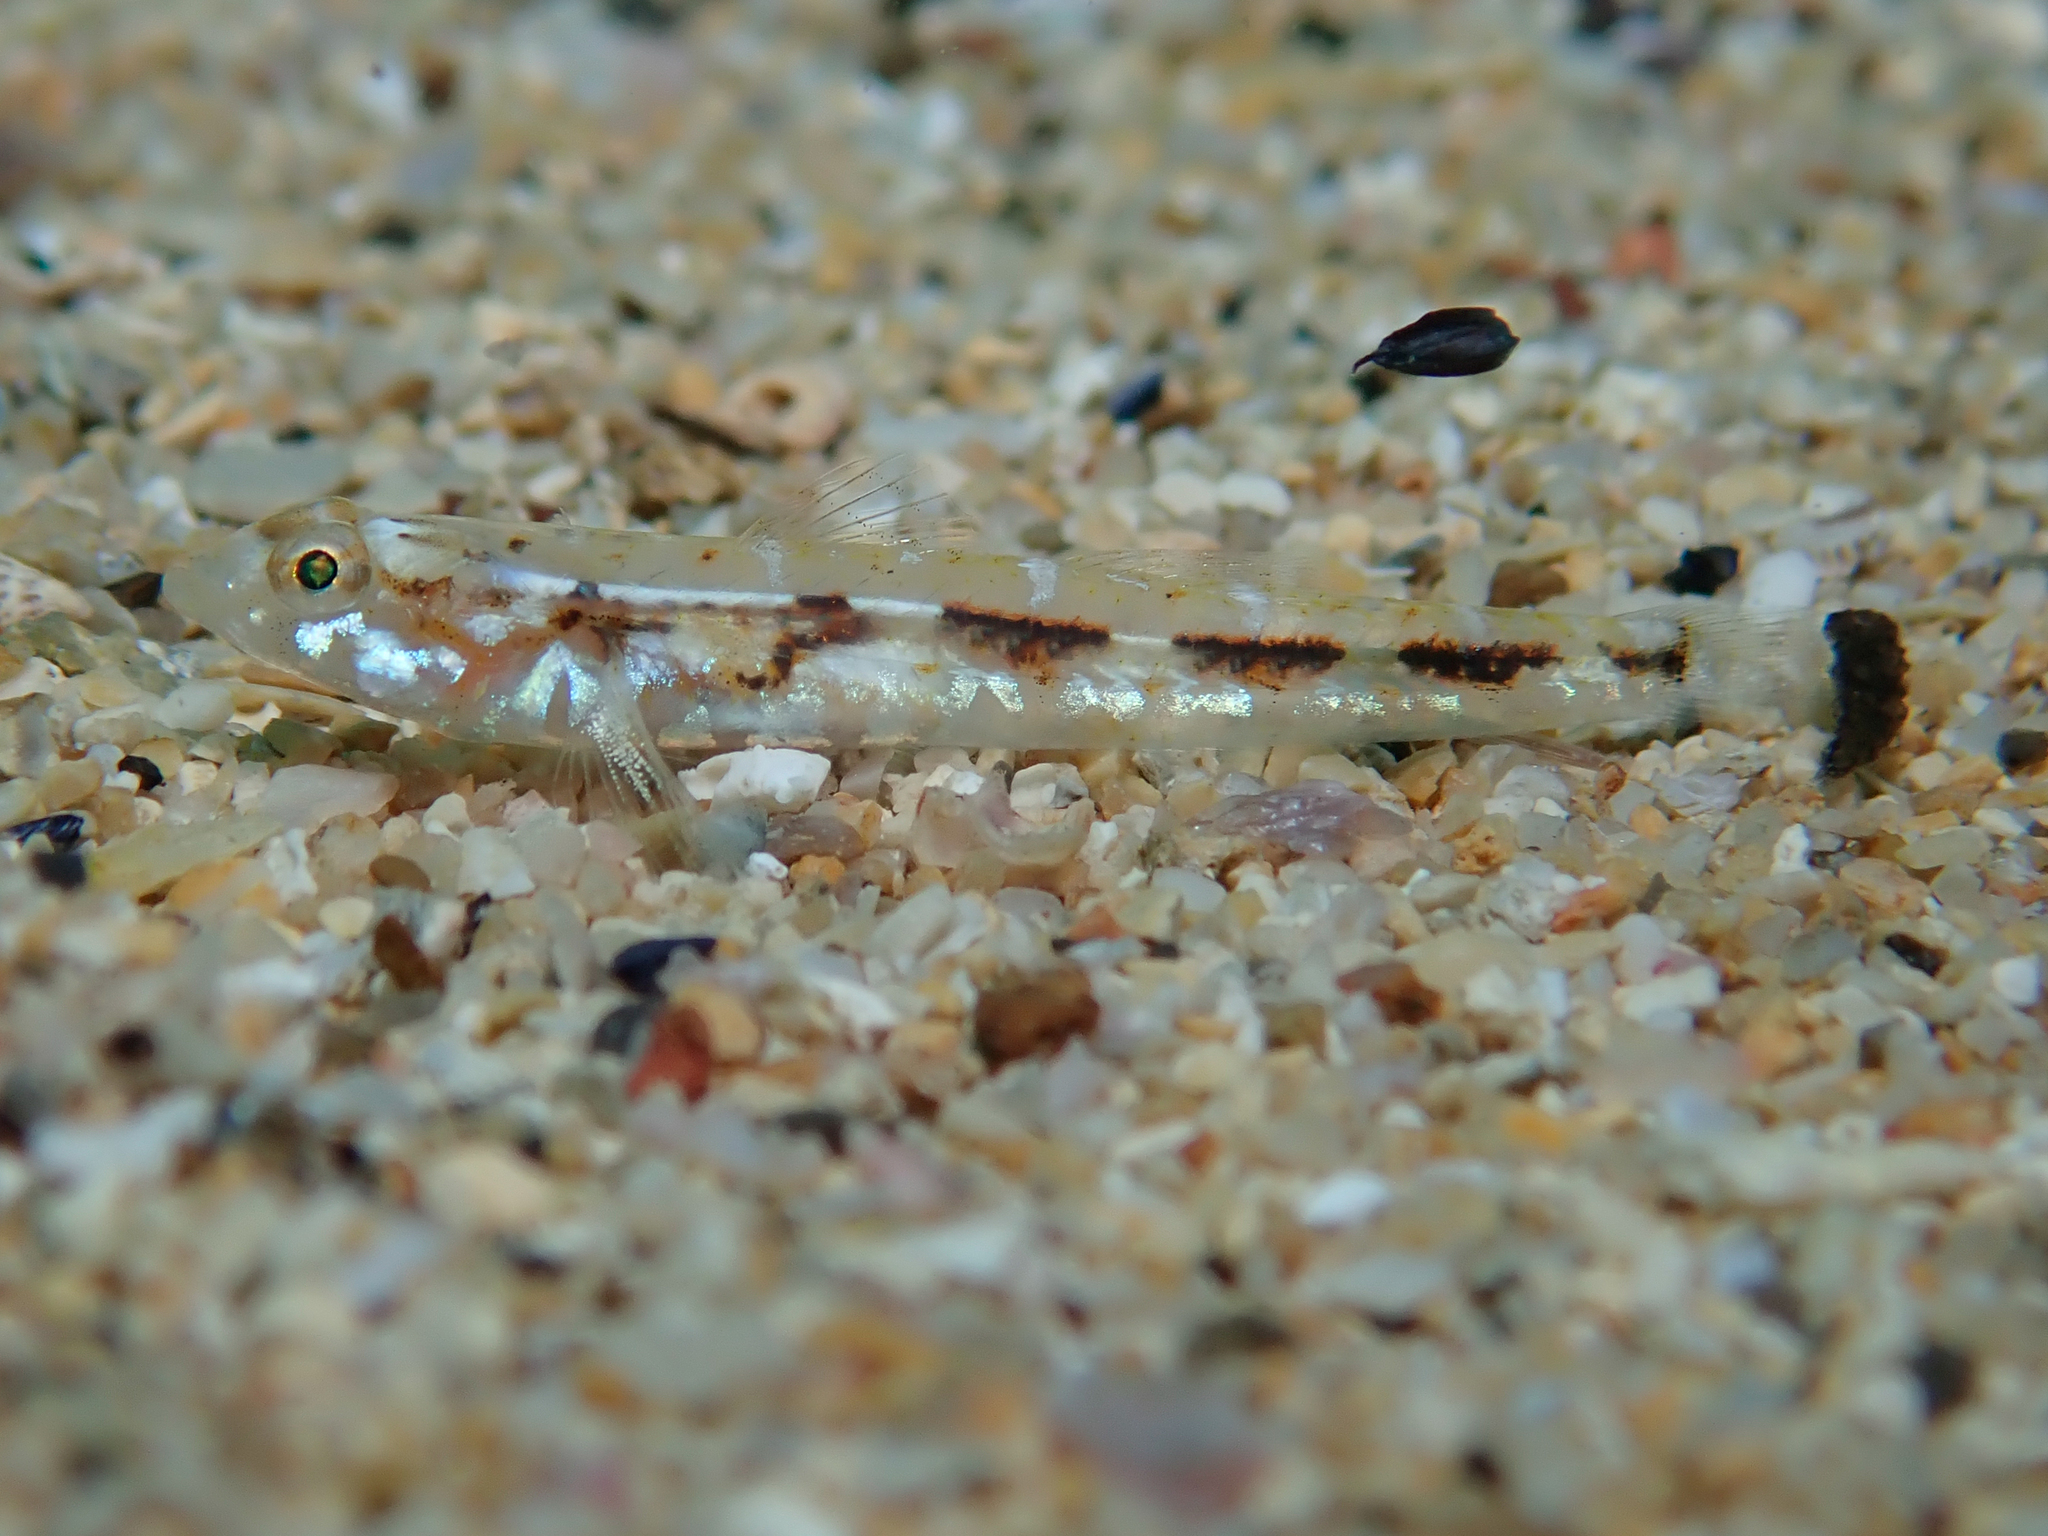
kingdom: Animalia
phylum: Chordata
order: Perciformes
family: Gobiidae
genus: Pomatoschistus
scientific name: Pomatoschistus bathi
